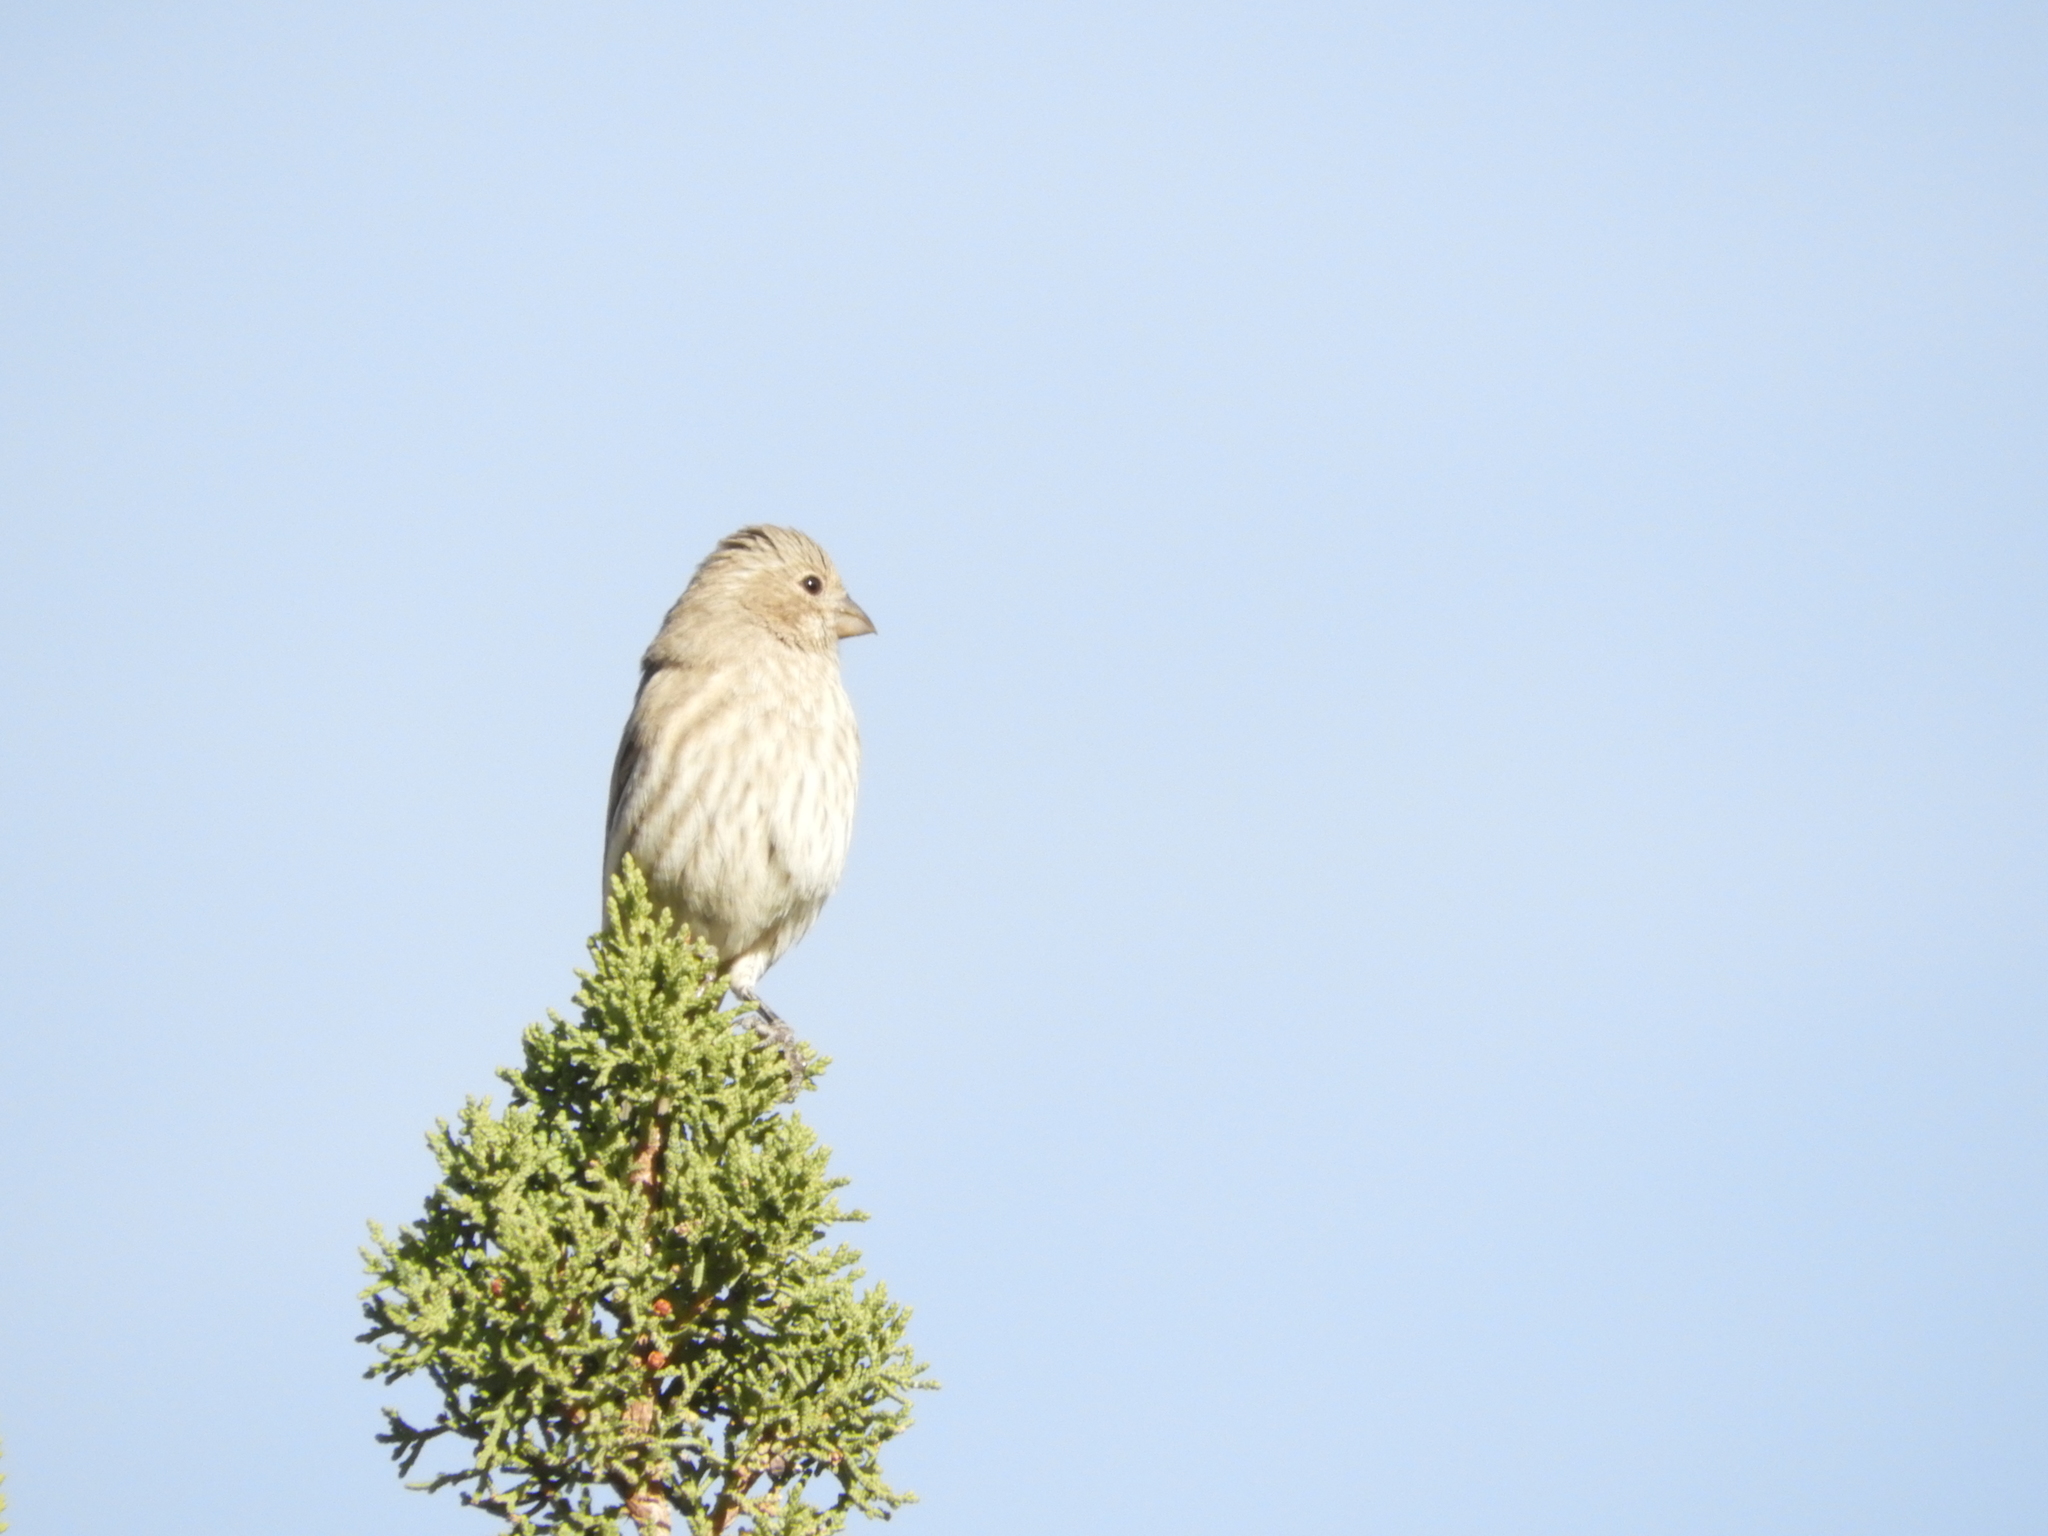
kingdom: Animalia
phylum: Chordata
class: Aves
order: Passeriformes
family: Fringillidae
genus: Haemorhous
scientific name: Haemorhous mexicanus
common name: House finch
